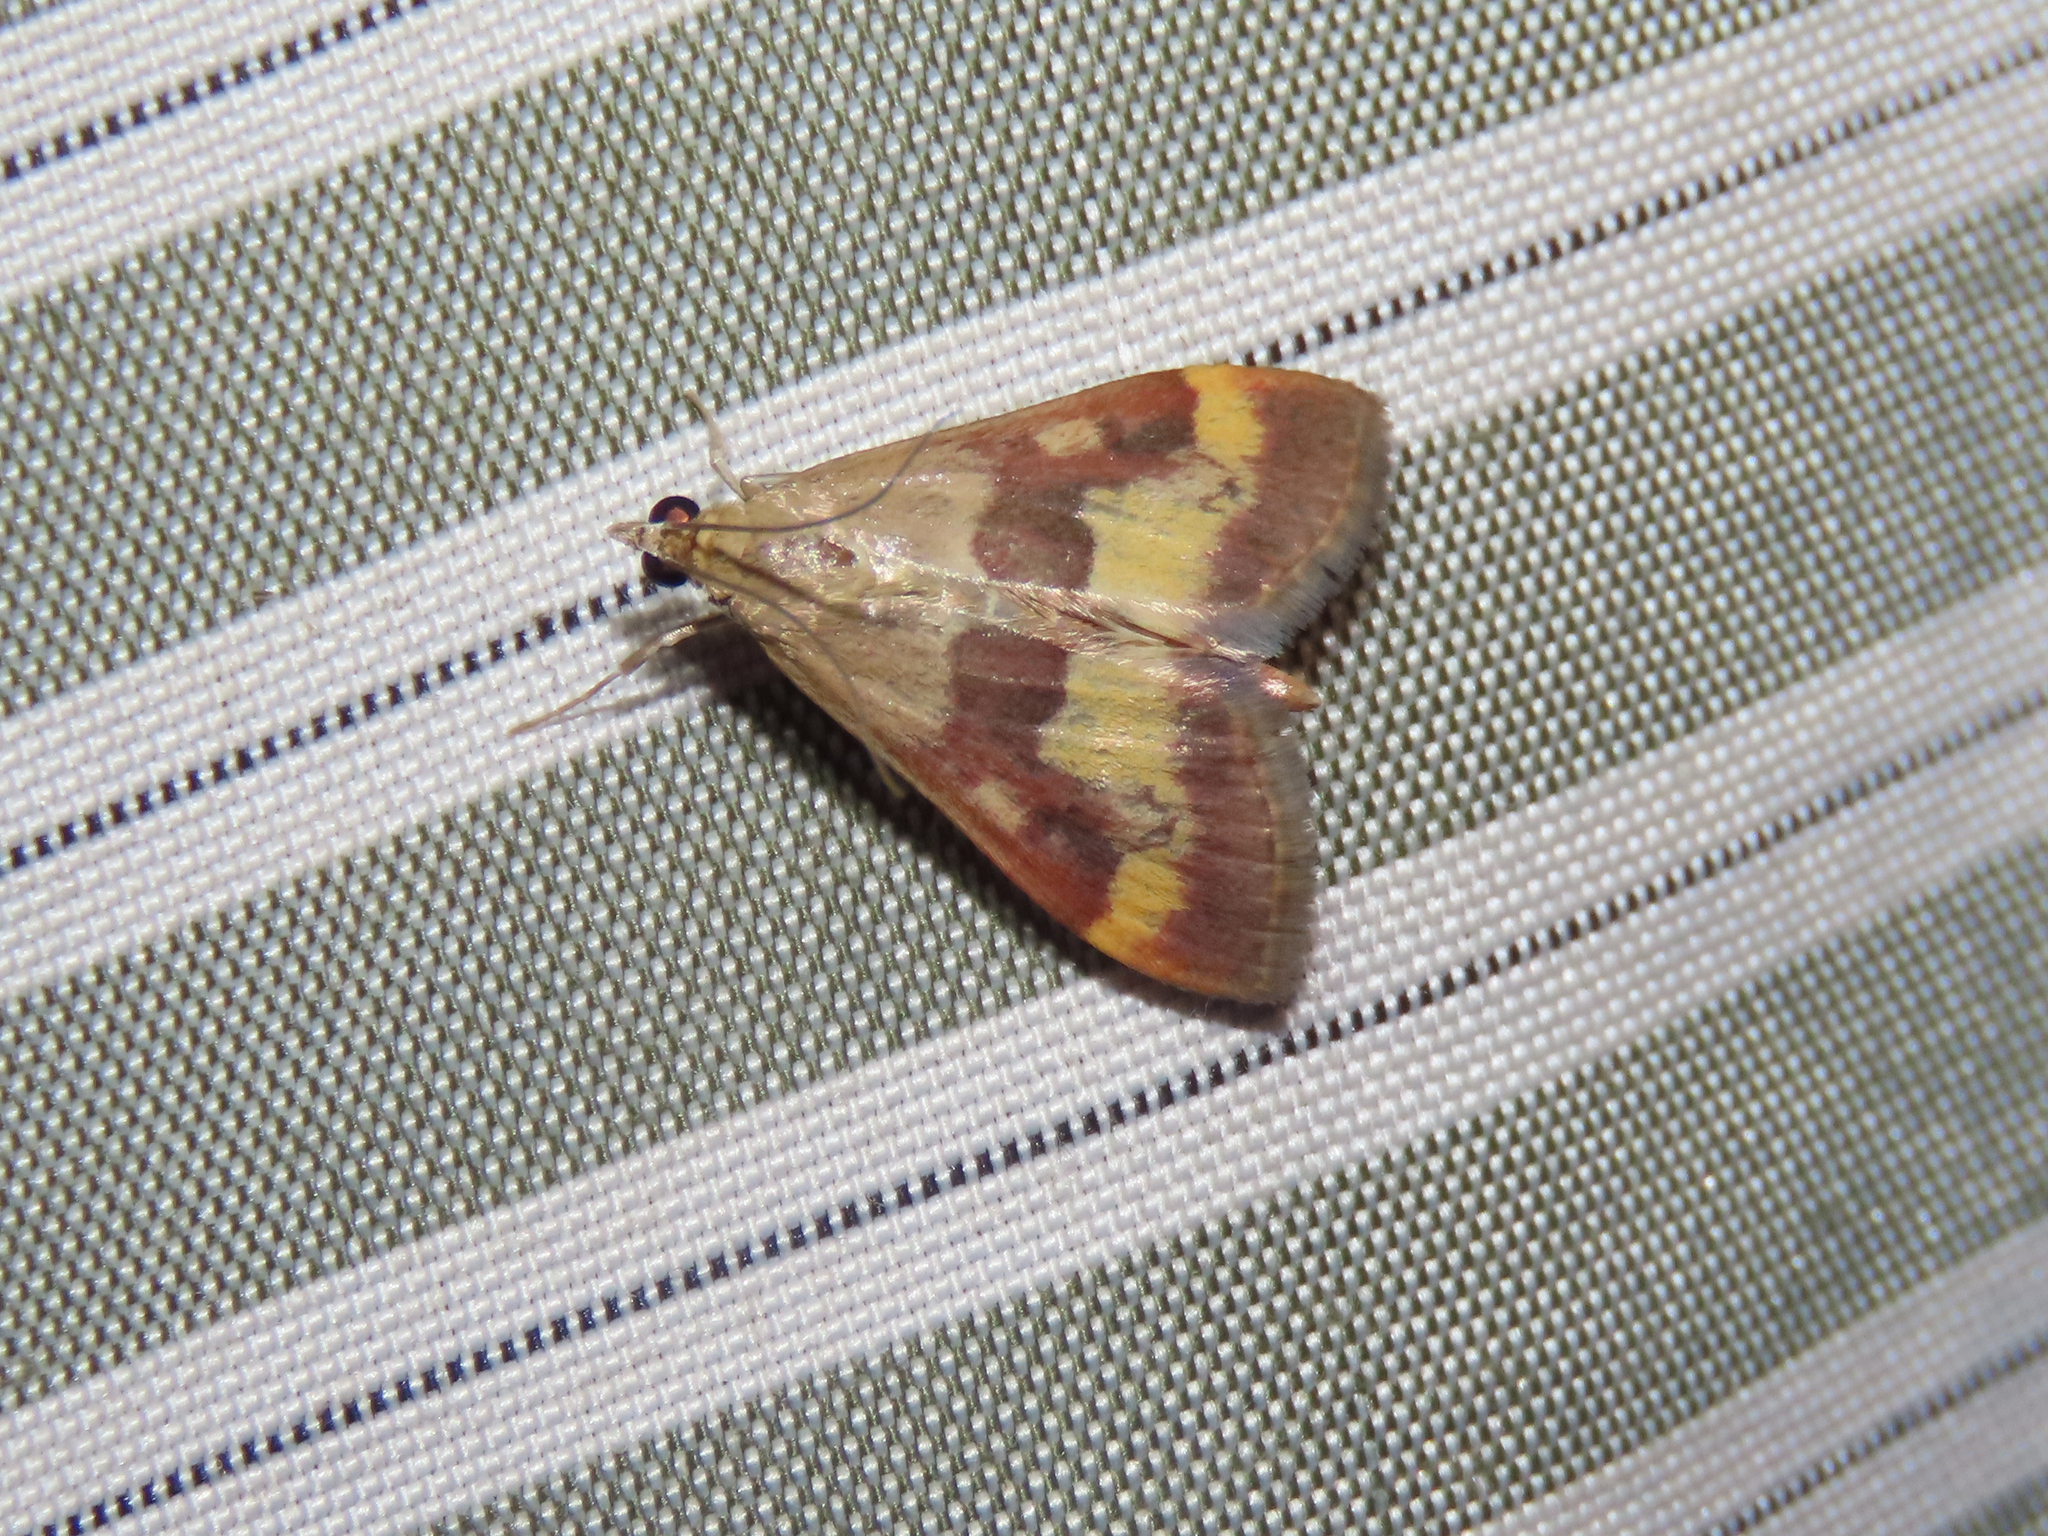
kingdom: Animalia
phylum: Arthropoda
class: Insecta
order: Lepidoptera
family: Crambidae
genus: Pyrausta
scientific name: Pyrausta flavofascialis
